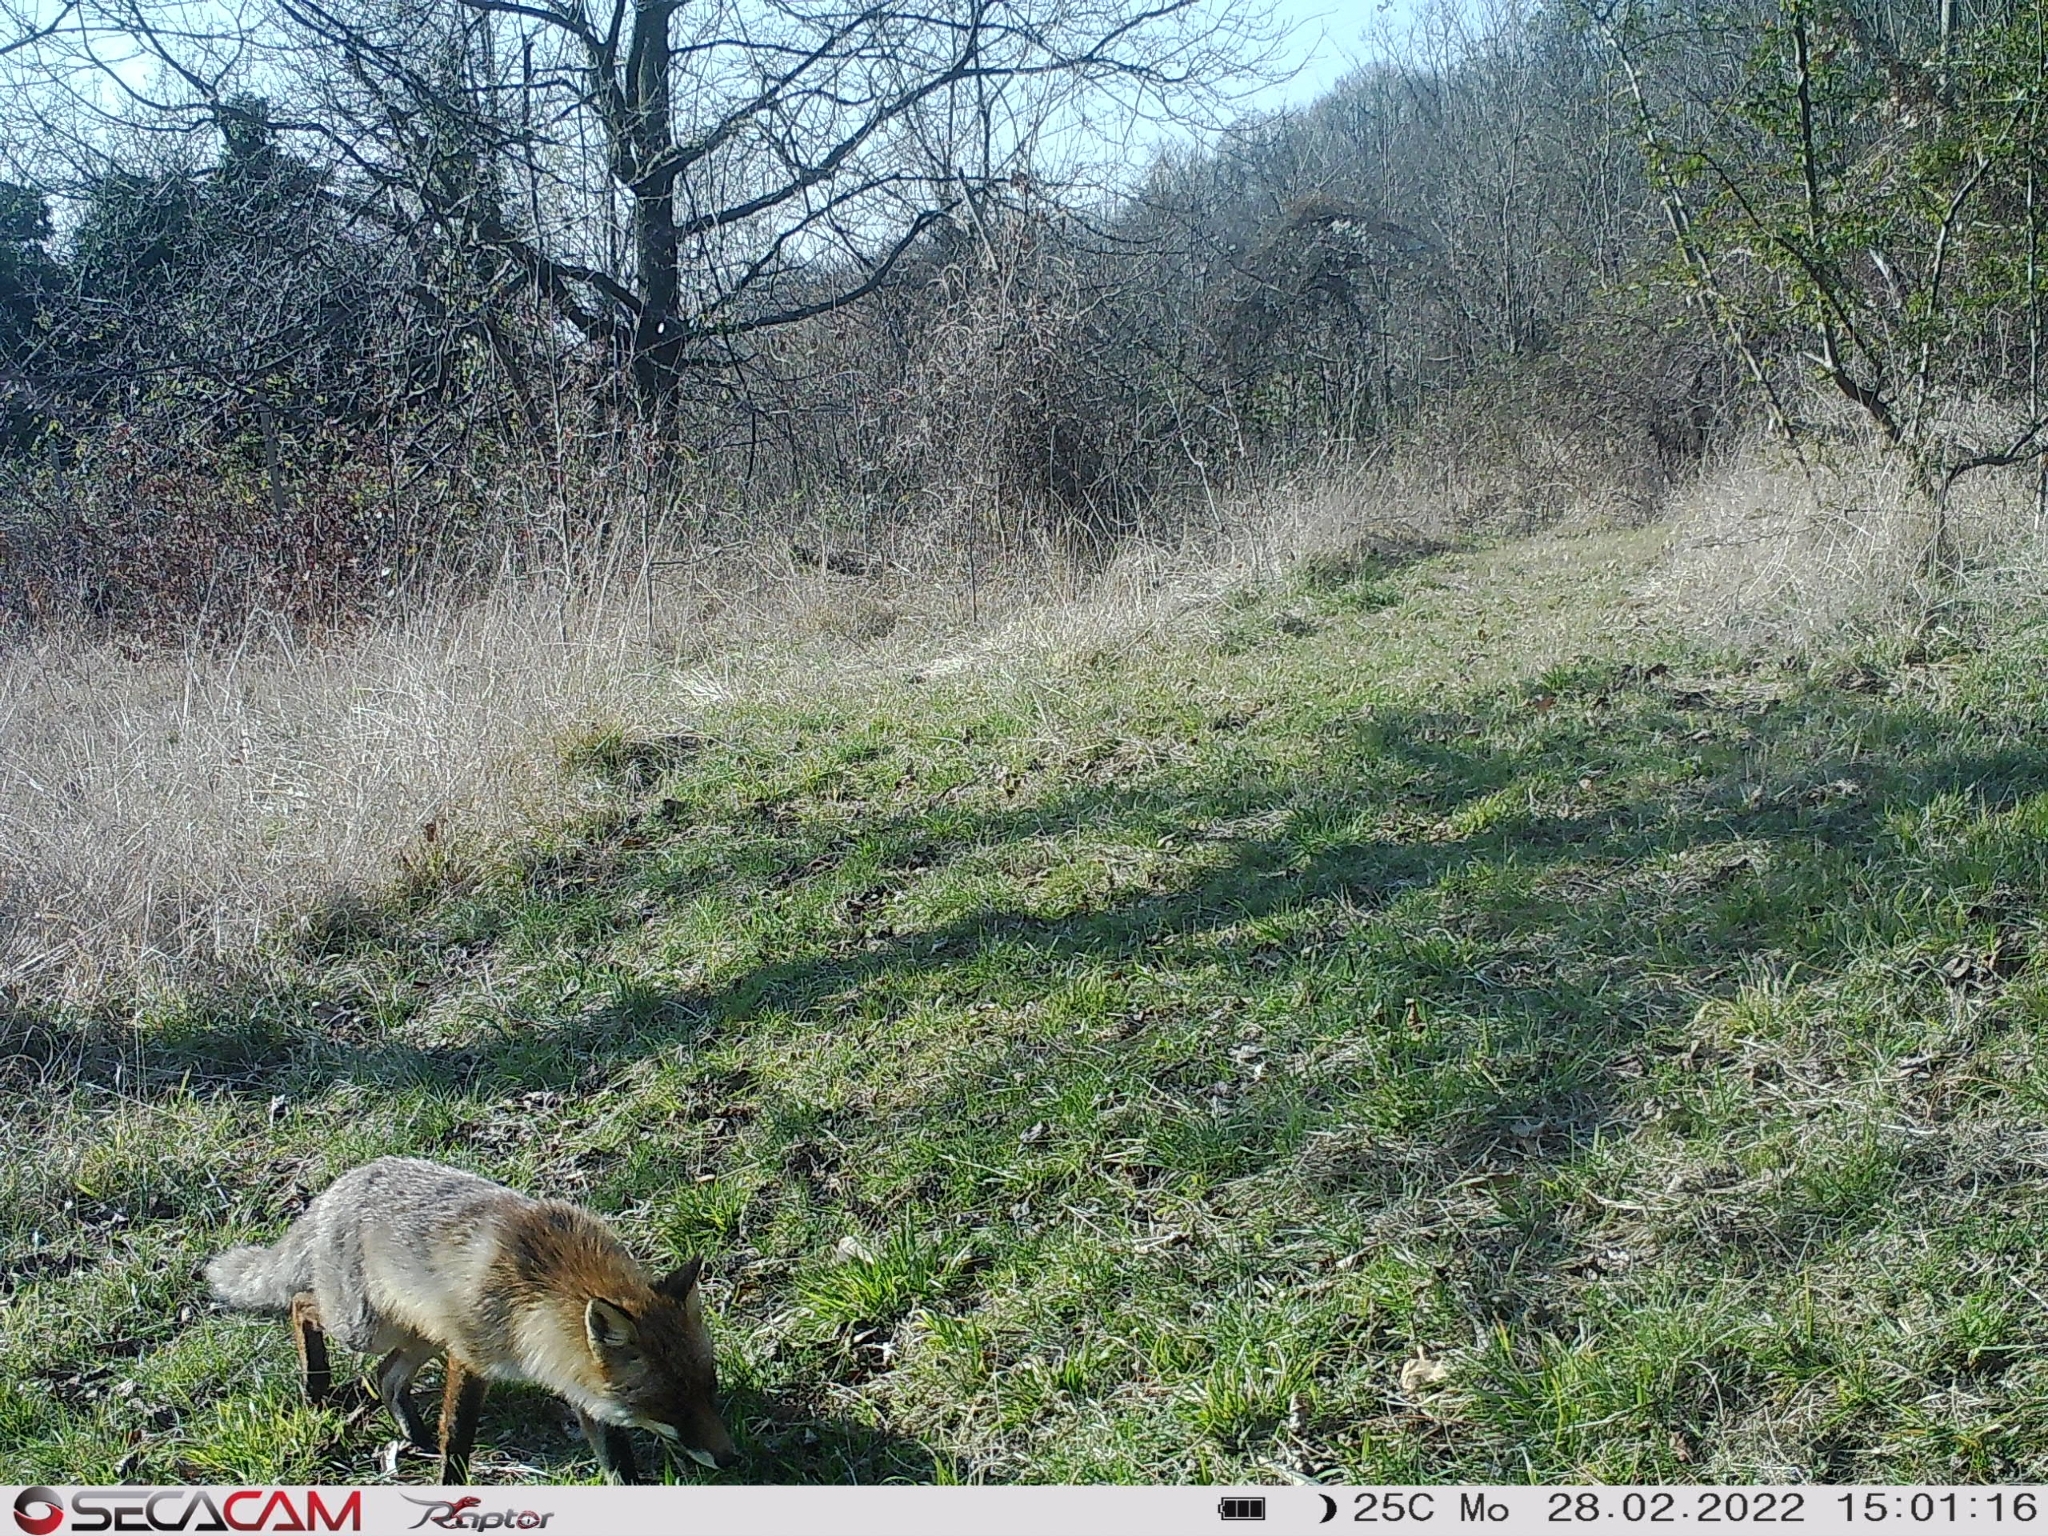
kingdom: Animalia
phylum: Chordata
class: Mammalia
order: Carnivora
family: Canidae
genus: Vulpes
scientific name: Vulpes vulpes
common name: Red fox
